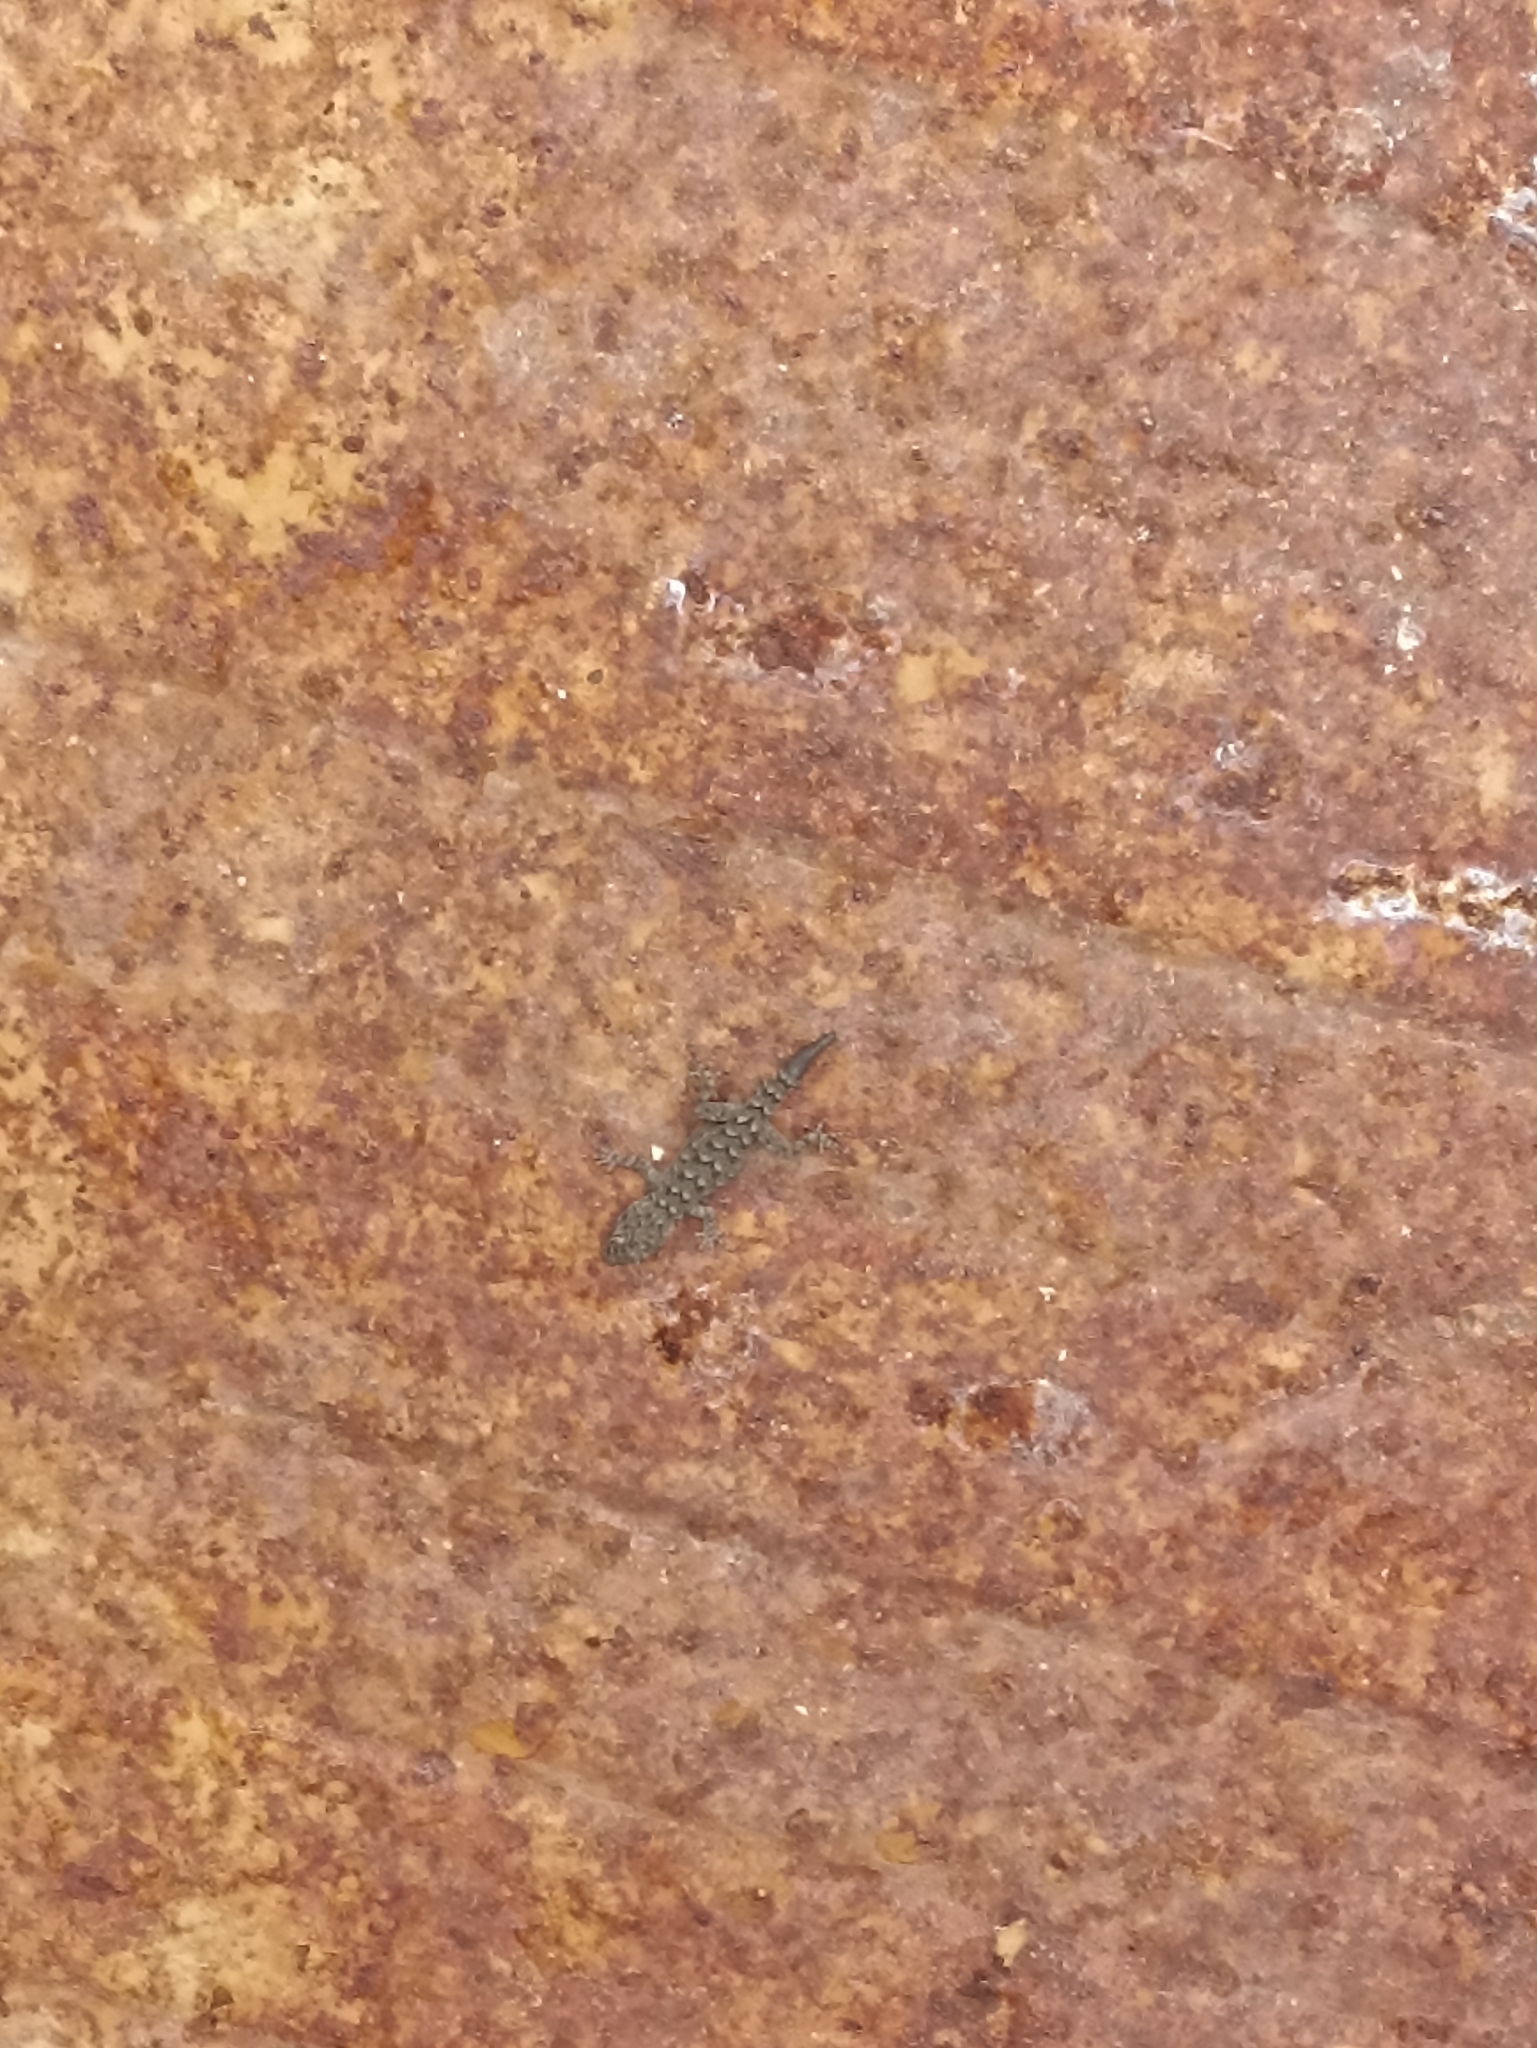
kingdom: Animalia
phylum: Chordata
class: Squamata
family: Gekkonidae
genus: Mediodactylus
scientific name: Mediodactylus kotschyi
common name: Kotschy's gecko
